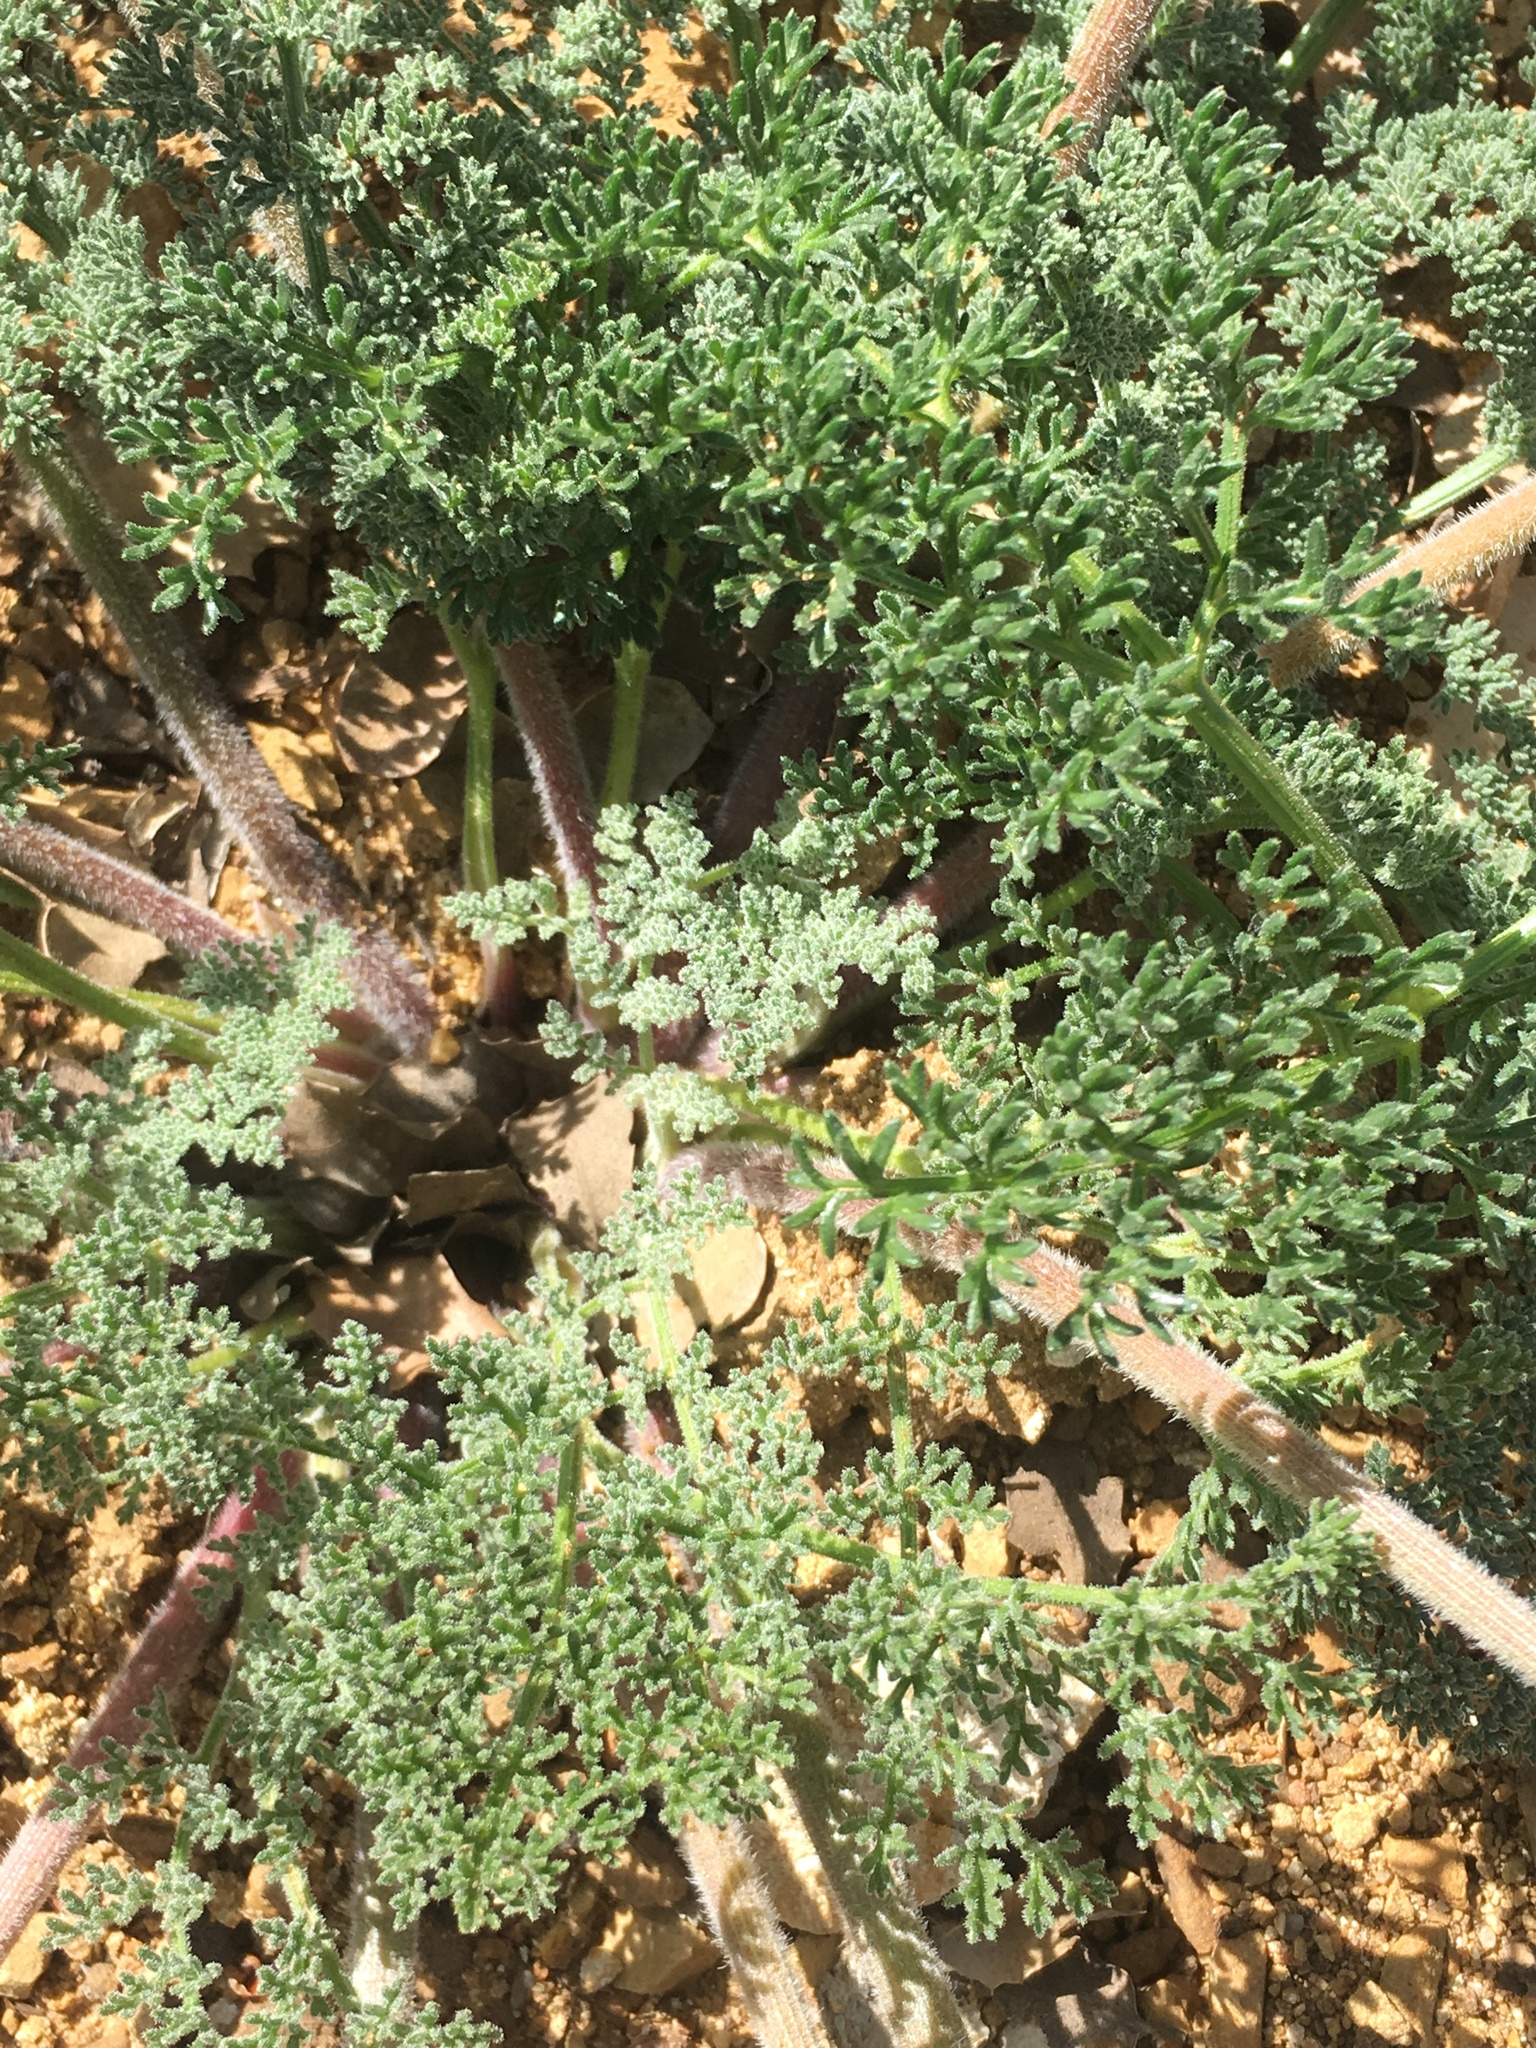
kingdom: Plantae
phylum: Tracheophyta
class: Magnoliopsida
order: Apiales
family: Apiaceae
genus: Lomatium
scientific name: Lomatium dasycarpum
